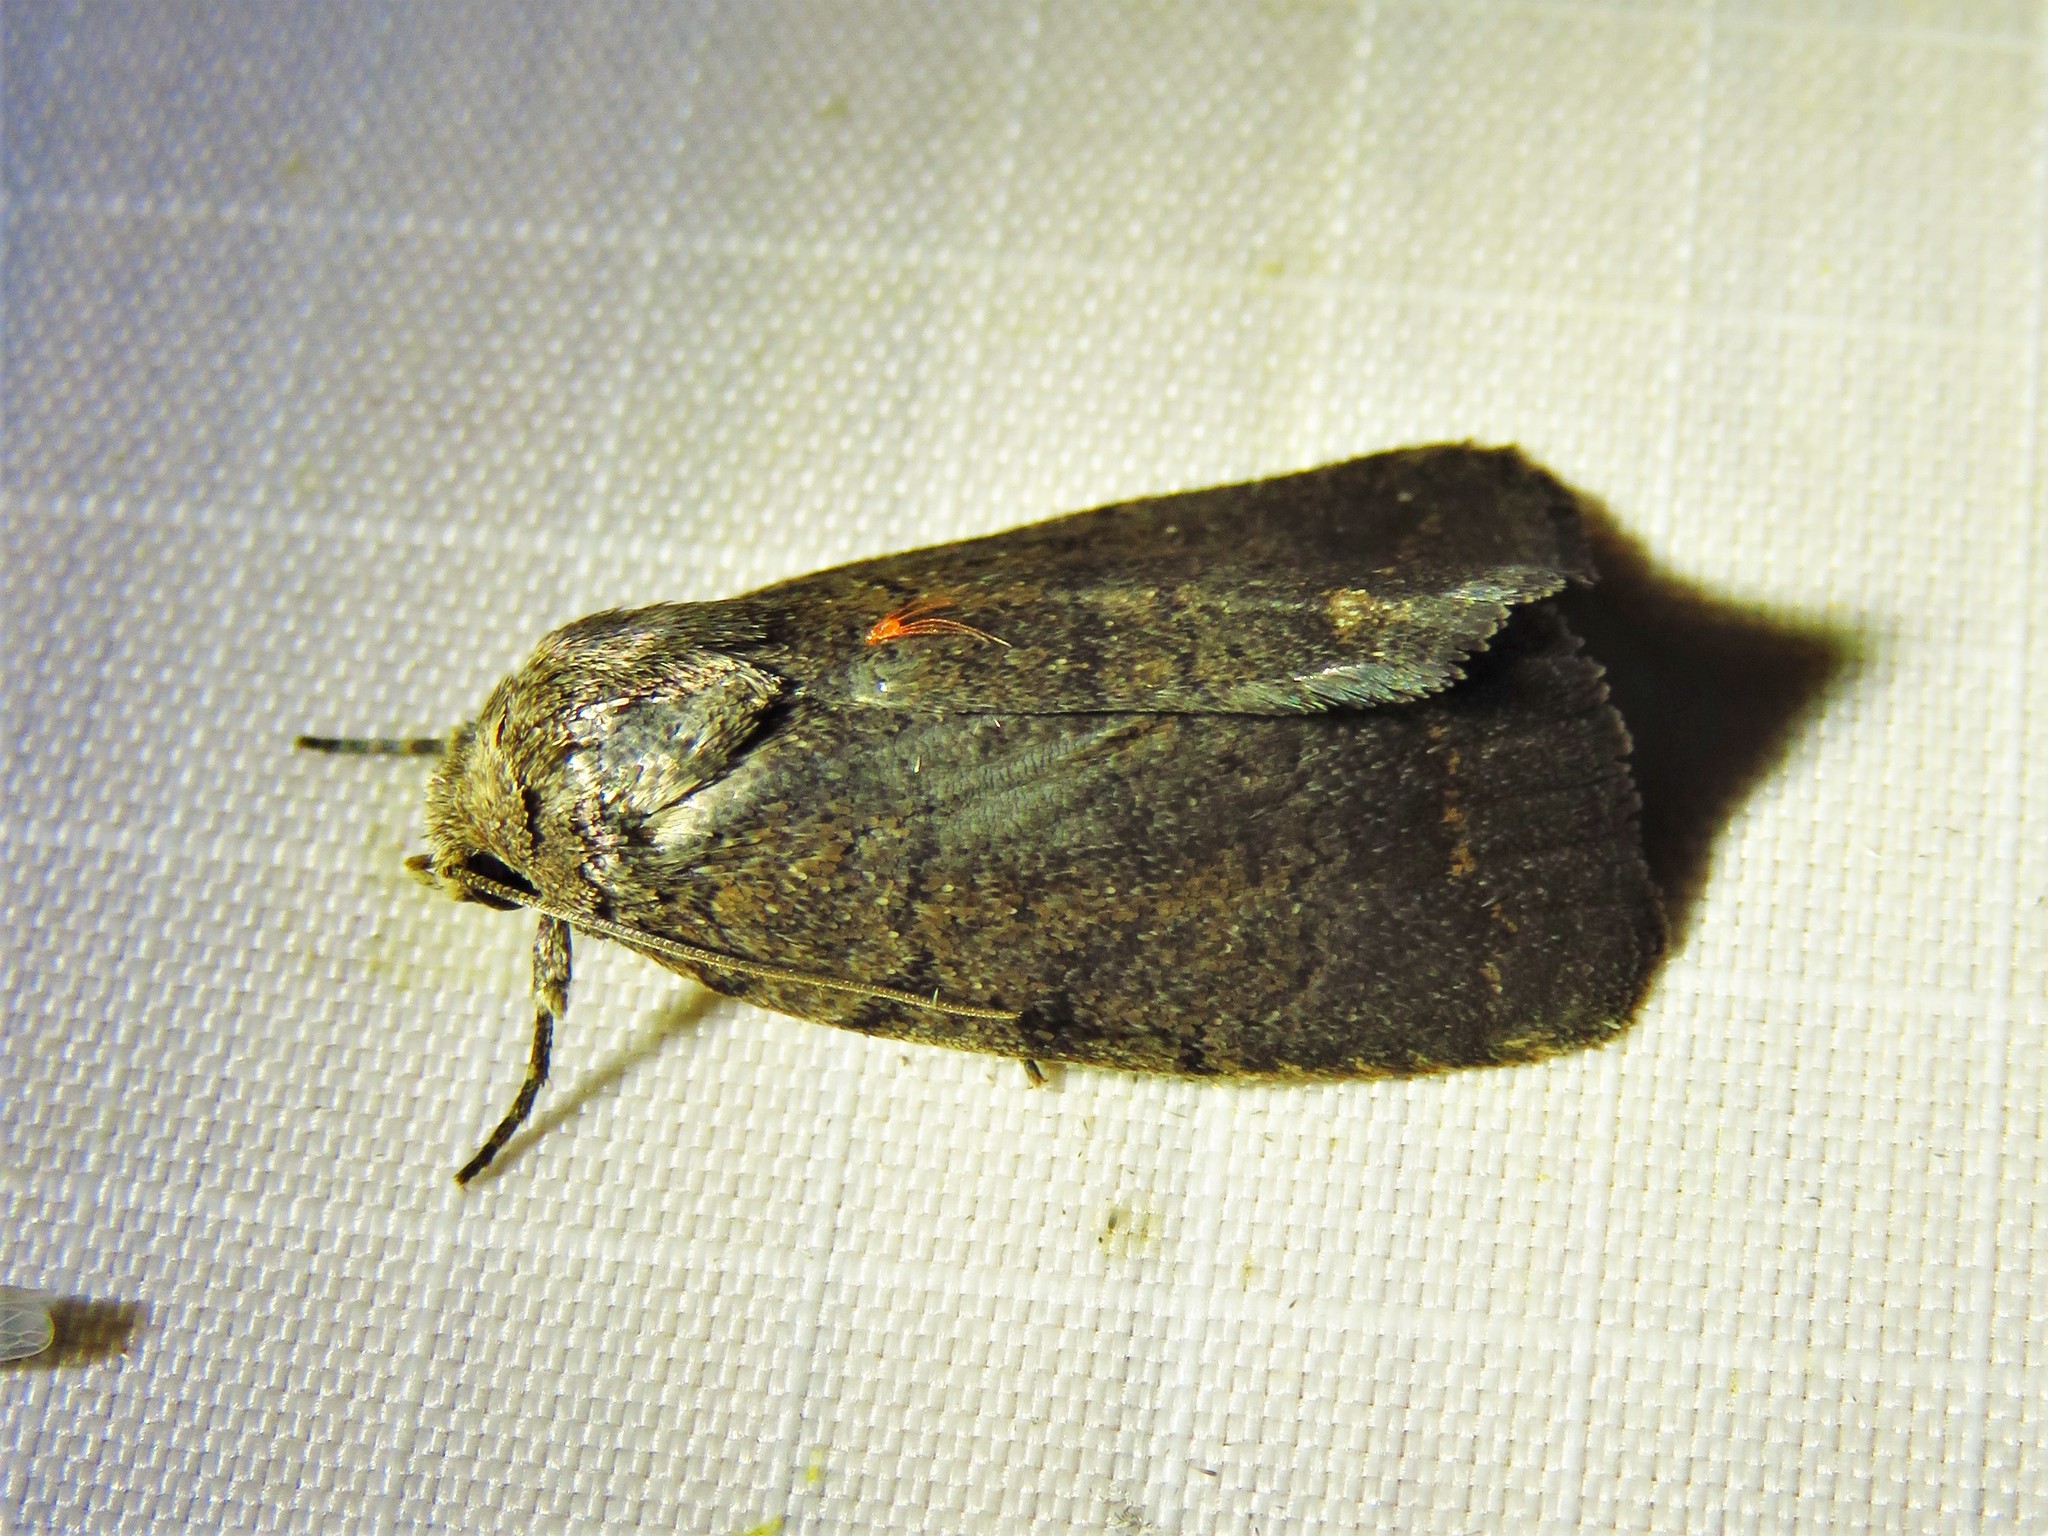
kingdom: Animalia
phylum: Arthropoda
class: Insecta
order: Lepidoptera
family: Noctuidae
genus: Athetis
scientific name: Athetis tarda
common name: Slowpoke moth
